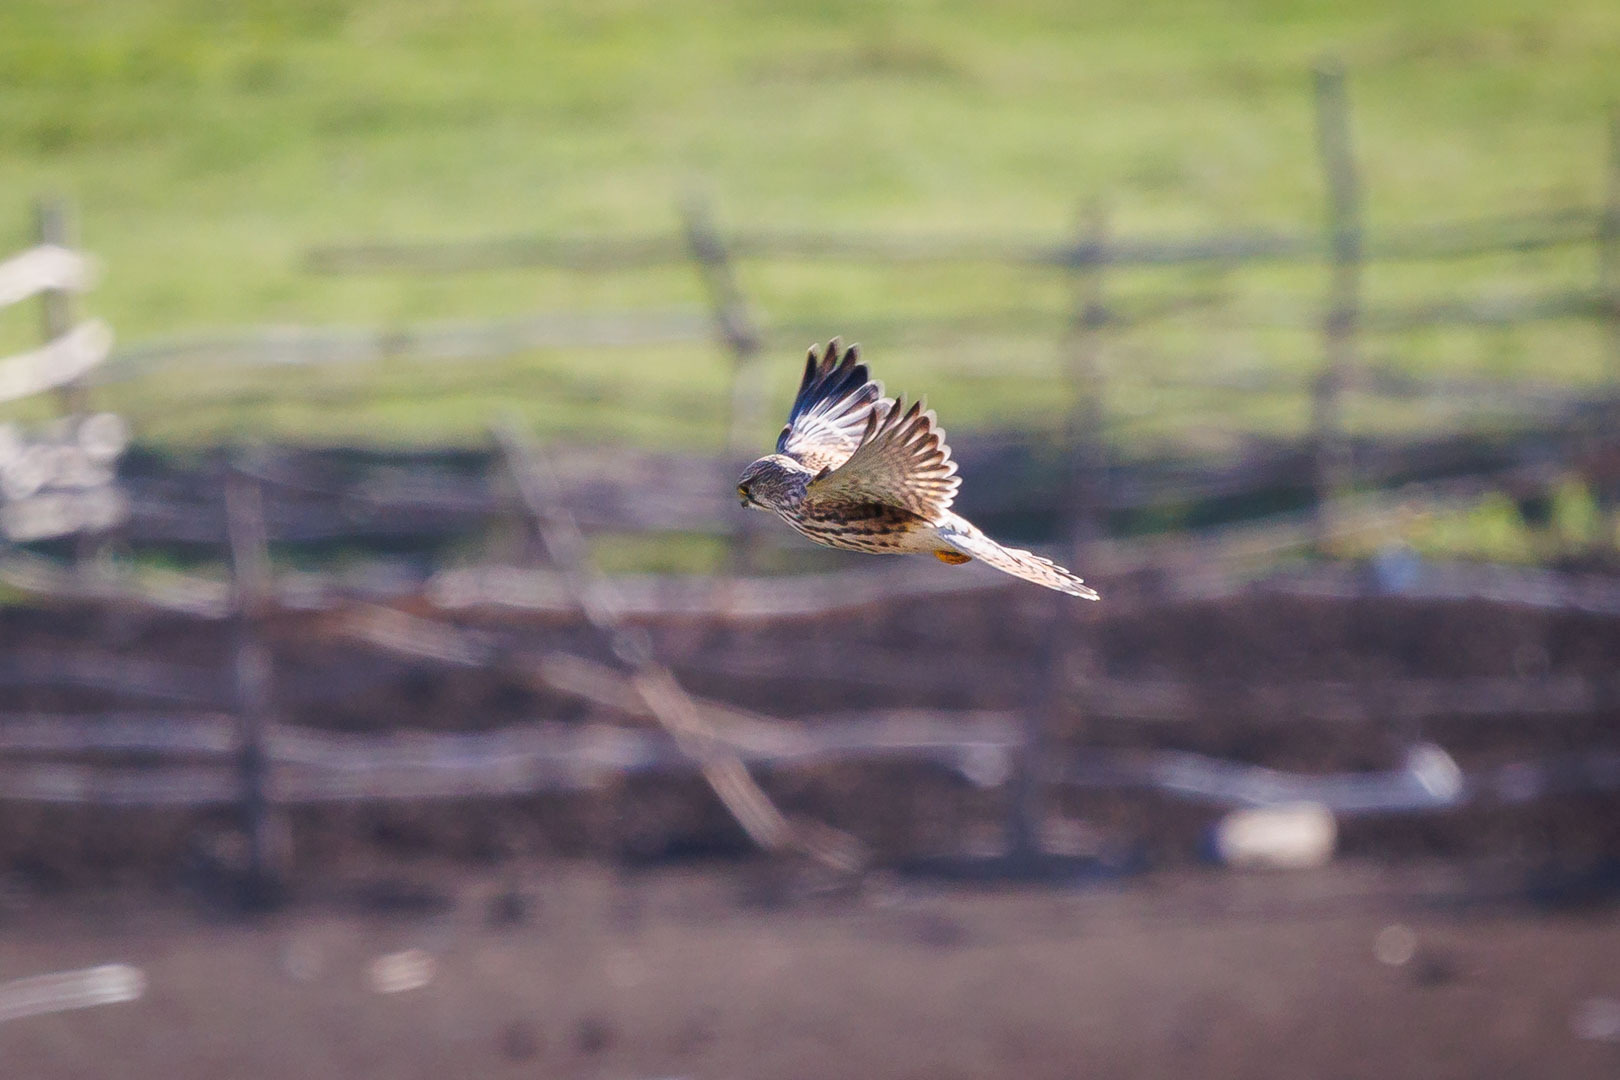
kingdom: Animalia
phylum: Chordata
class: Aves
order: Falconiformes
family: Falconidae
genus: Falco
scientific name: Falco tinnunculus
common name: Common kestrel
